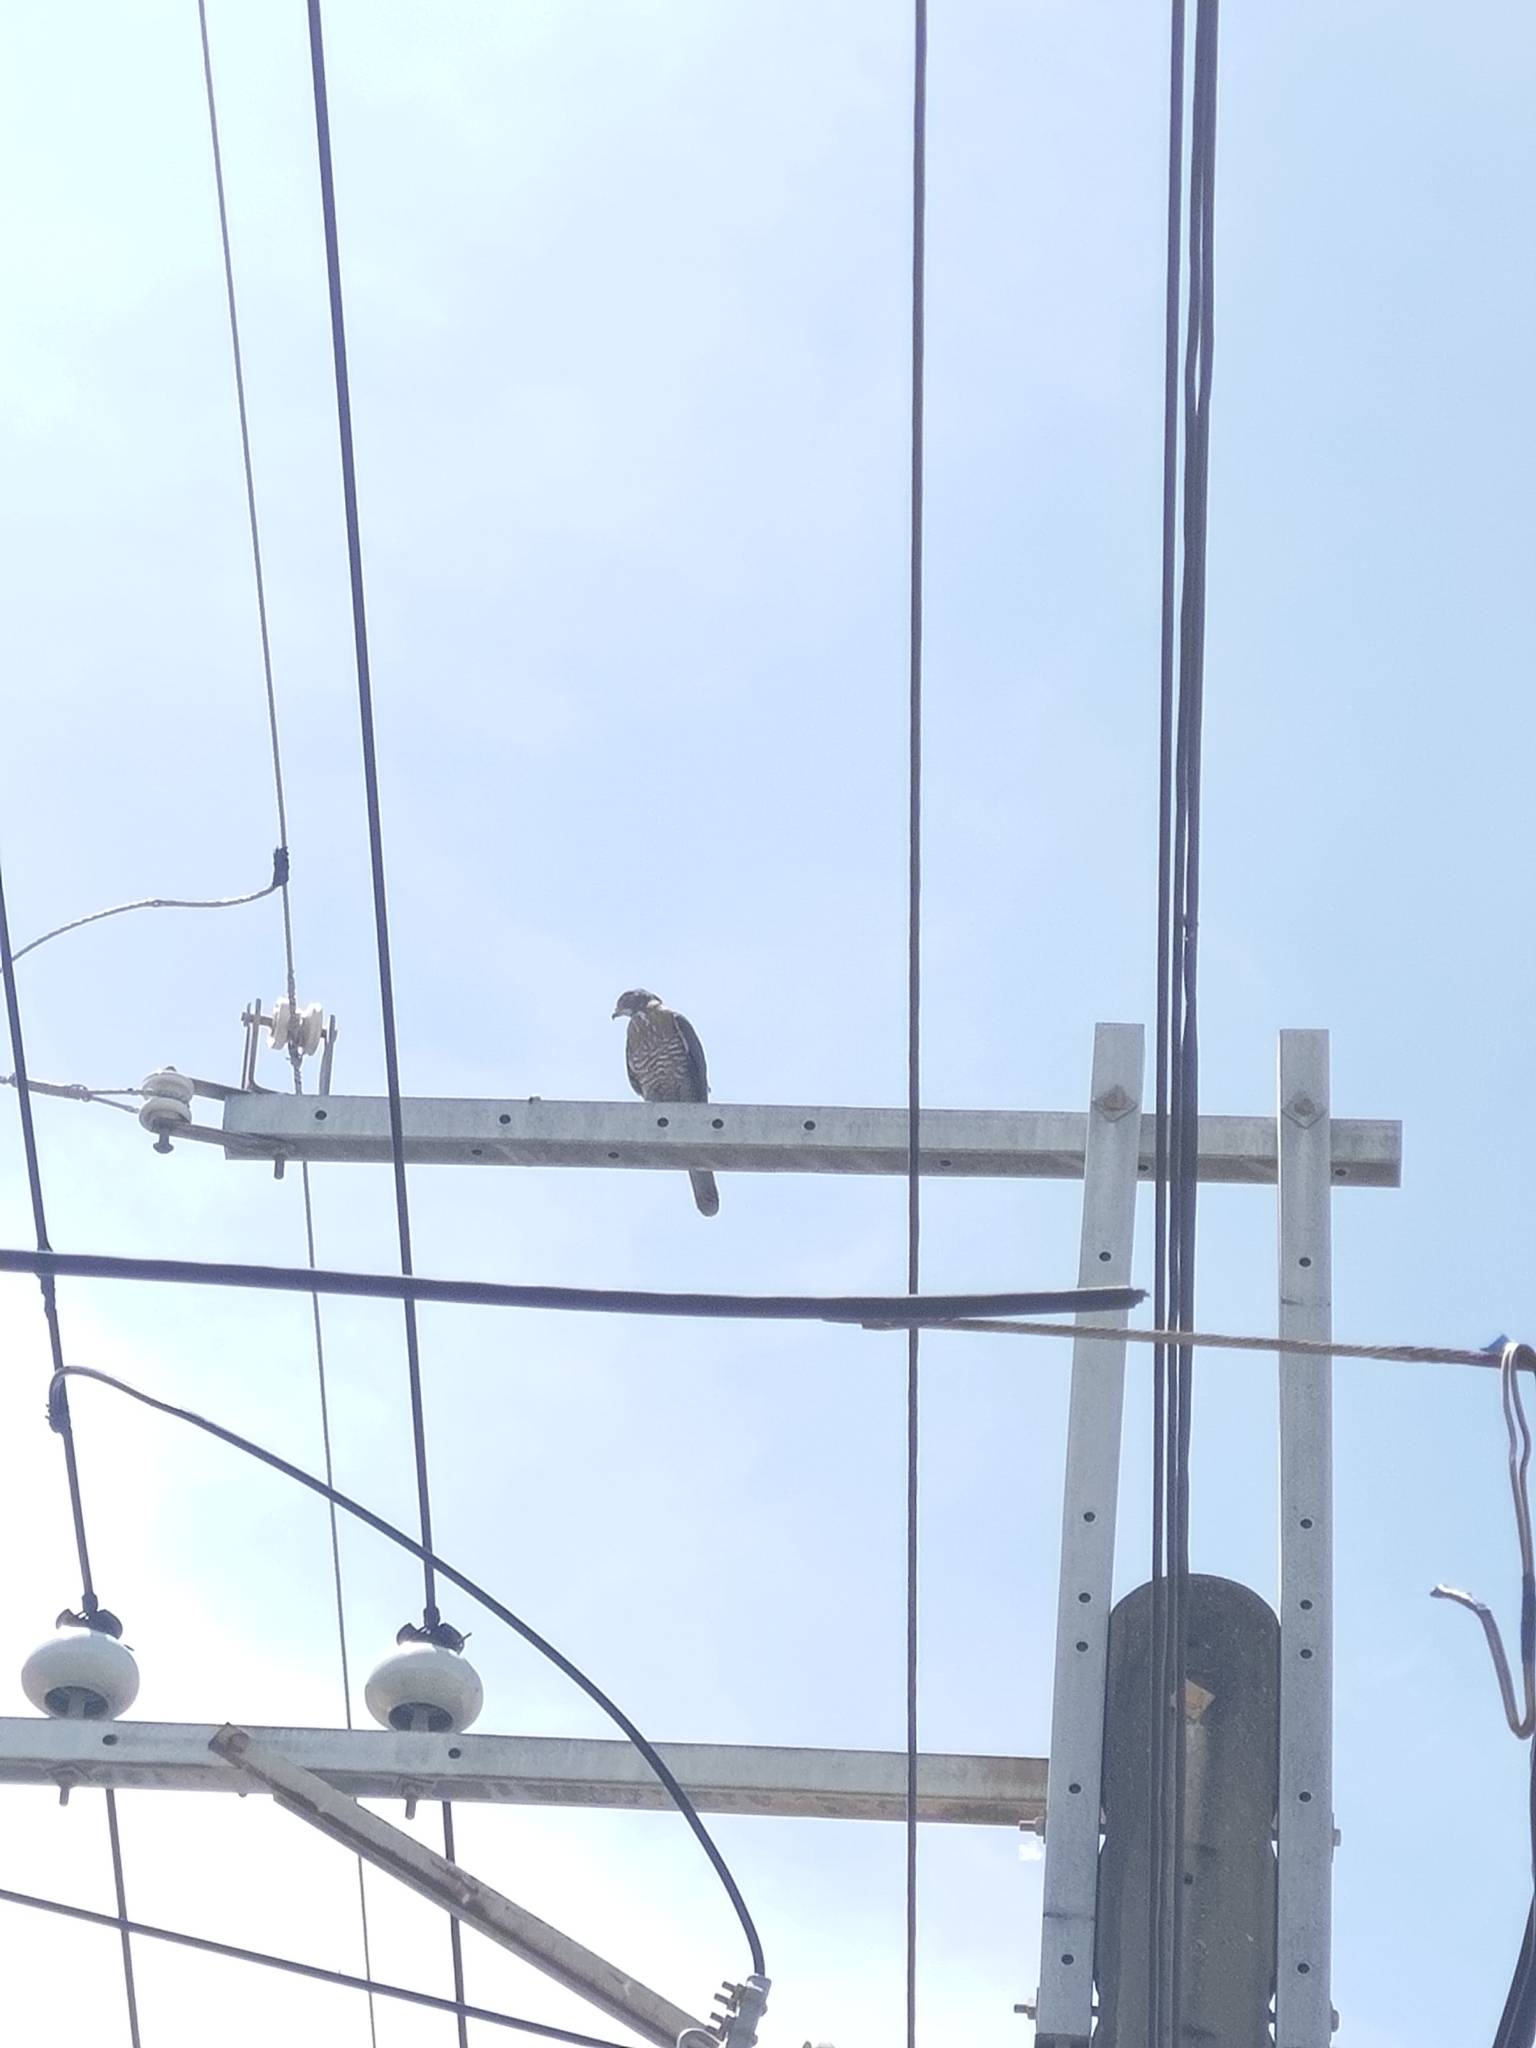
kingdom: Animalia
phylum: Chordata
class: Aves
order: Accipitriformes
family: Accipitridae
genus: Accipiter
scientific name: Accipiter trivirgatus
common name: Crested goshawk
